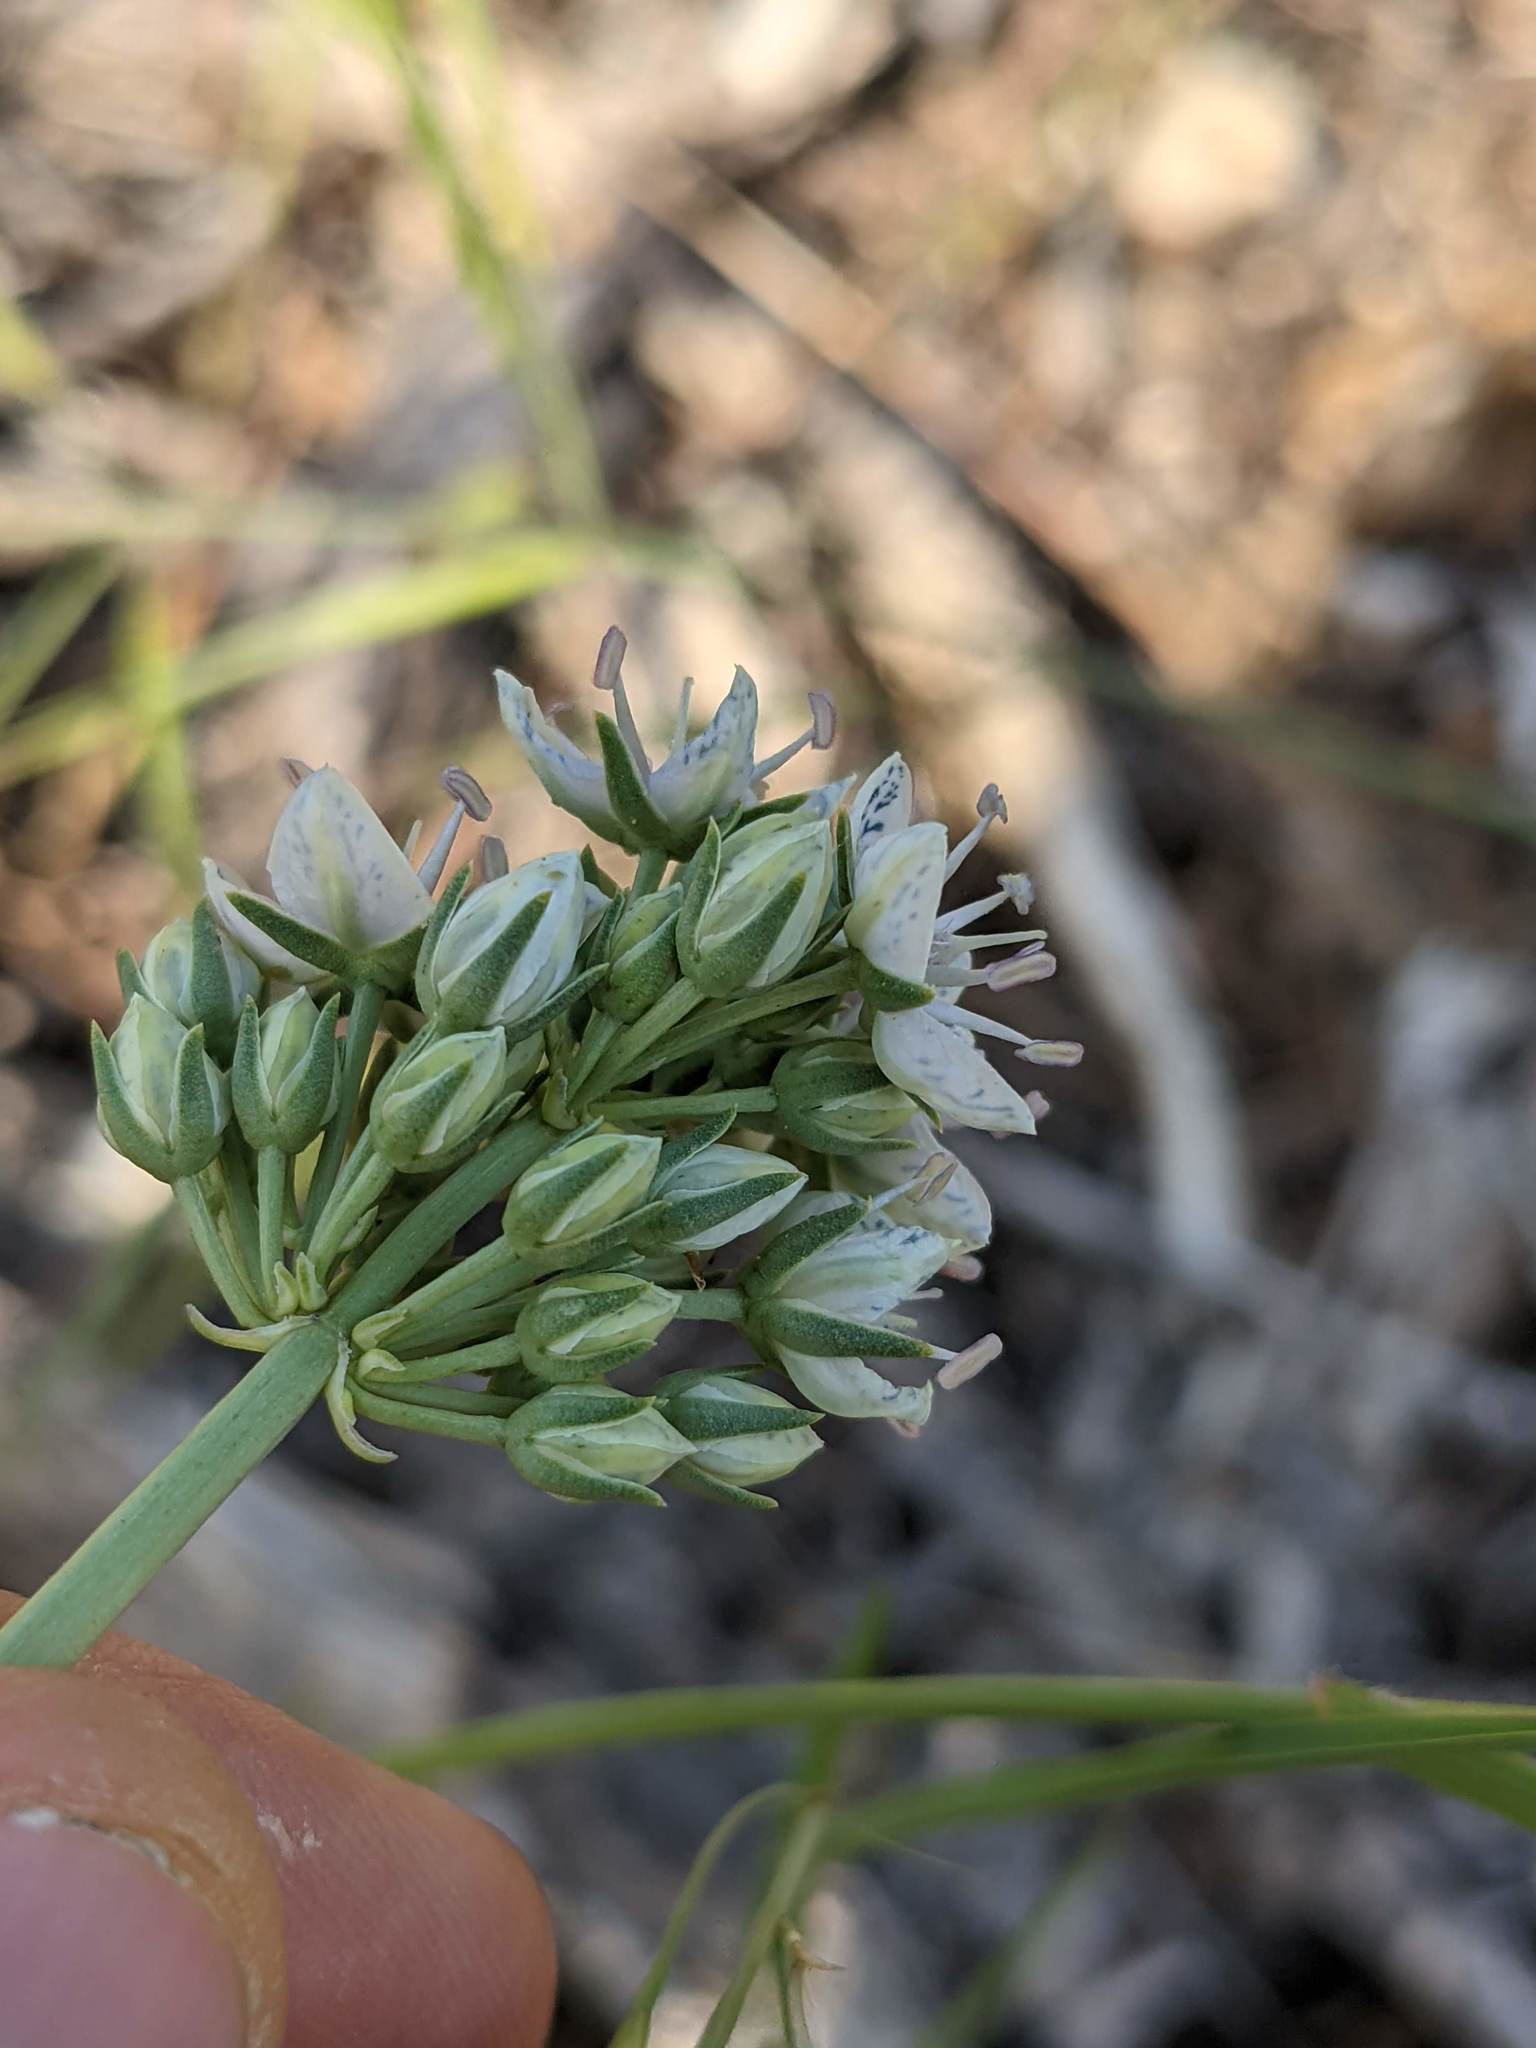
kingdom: Plantae
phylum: Tracheophyta
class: Magnoliopsida
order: Gentianales
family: Gentianaceae
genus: Frasera
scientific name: Frasera albicaulis
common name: Cusick's frasera
